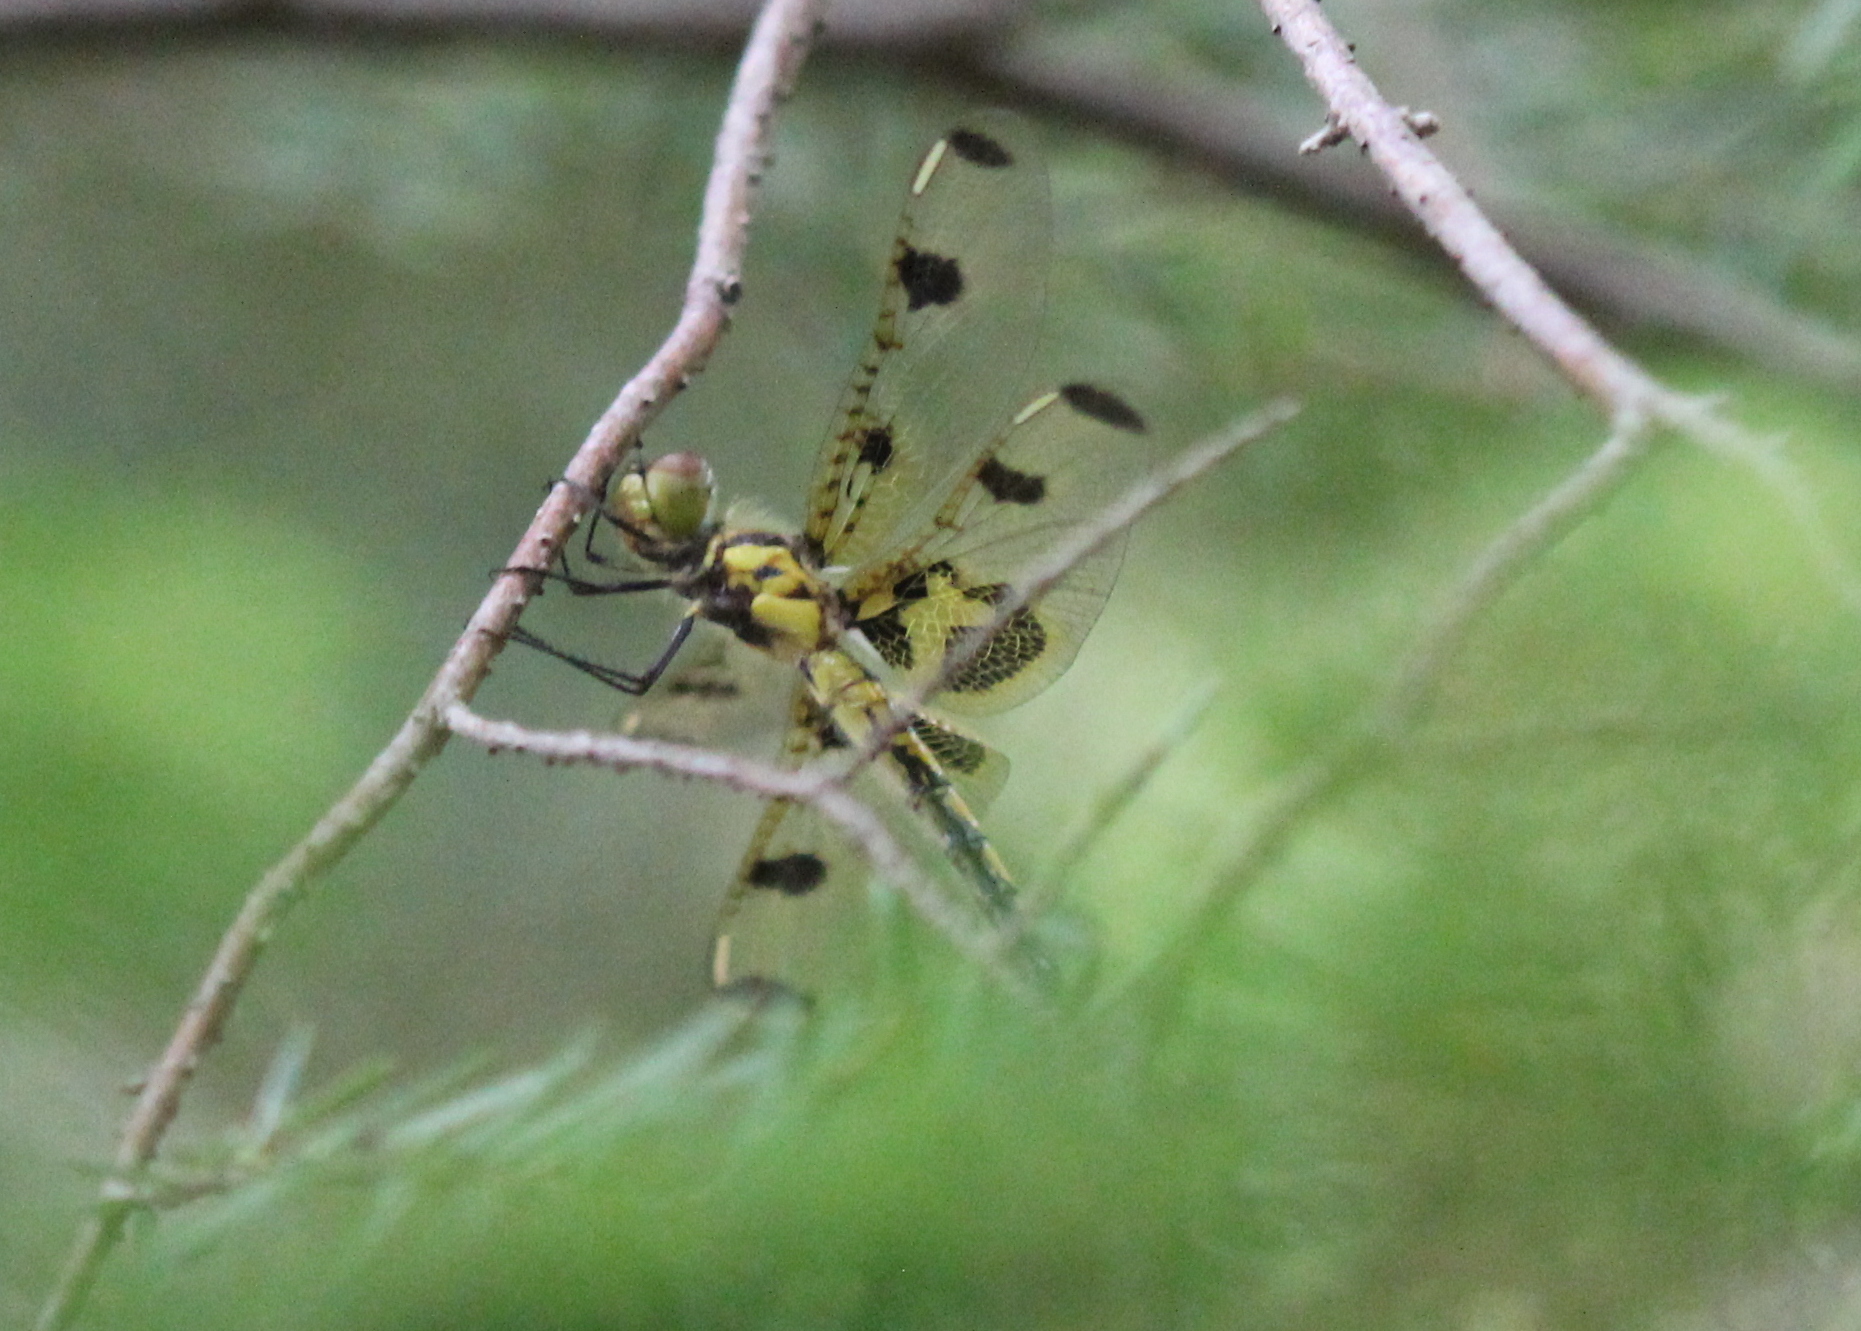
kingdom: Animalia
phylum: Arthropoda
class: Insecta
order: Odonata
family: Libellulidae
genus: Celithemis
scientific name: Celithemis elisa
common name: Calico pennant
